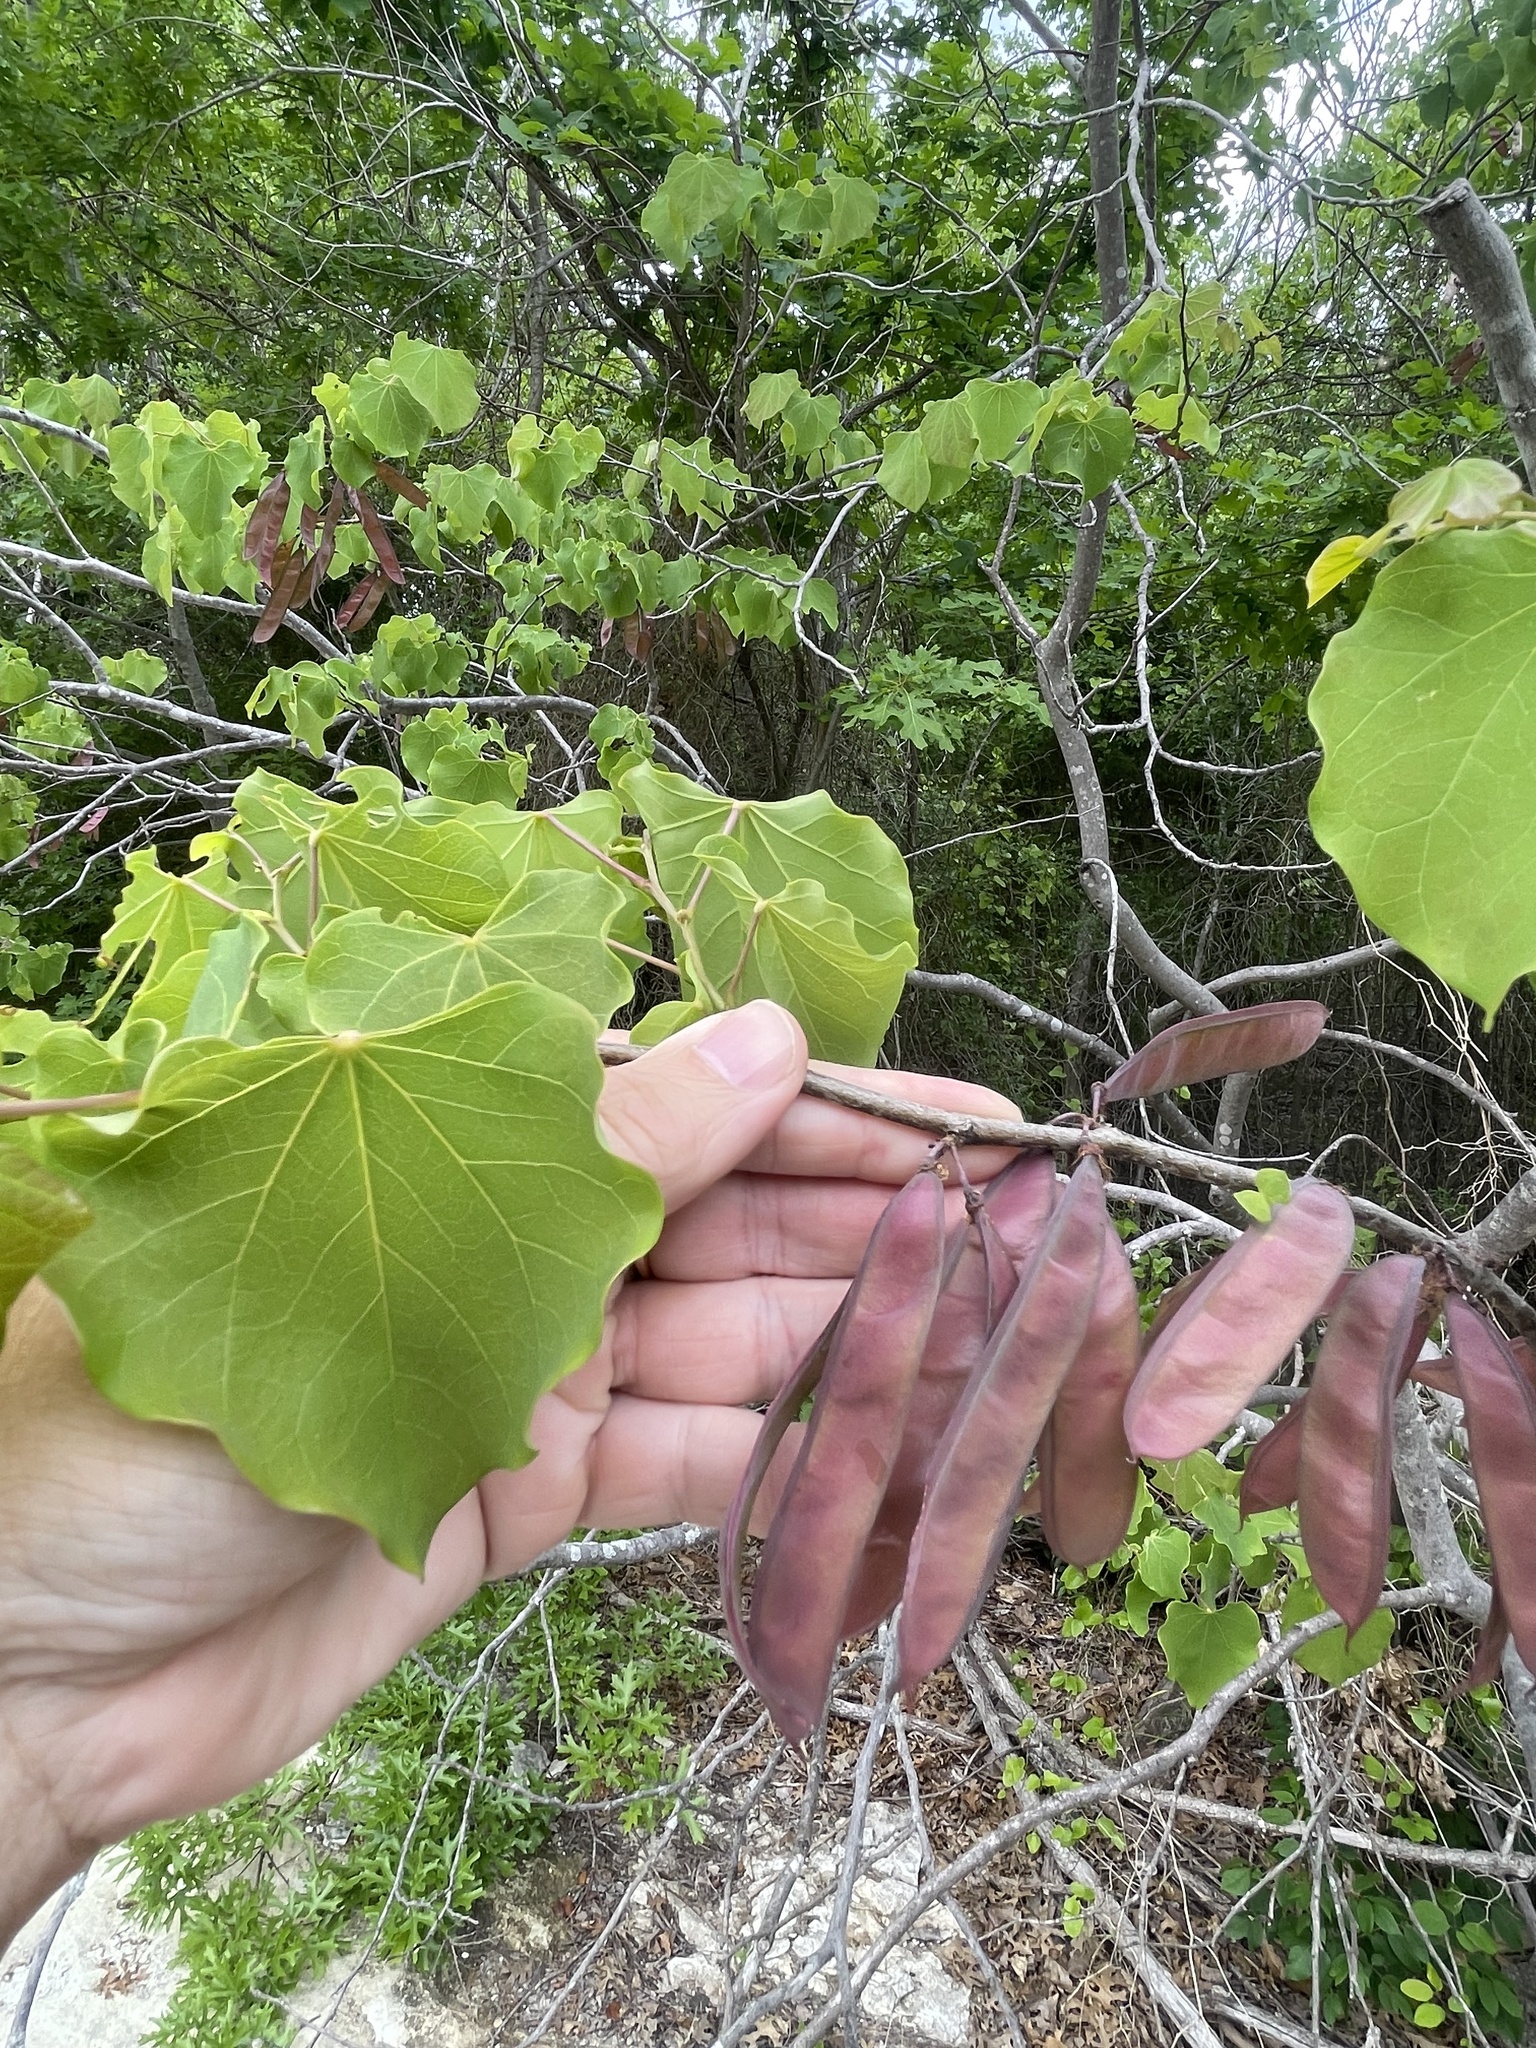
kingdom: Plantae
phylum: Tracheophyta
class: Magnoliopsida
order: Fabales
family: Fabaceae
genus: Cercis
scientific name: Cercis canadensis
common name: Eastern redbud
